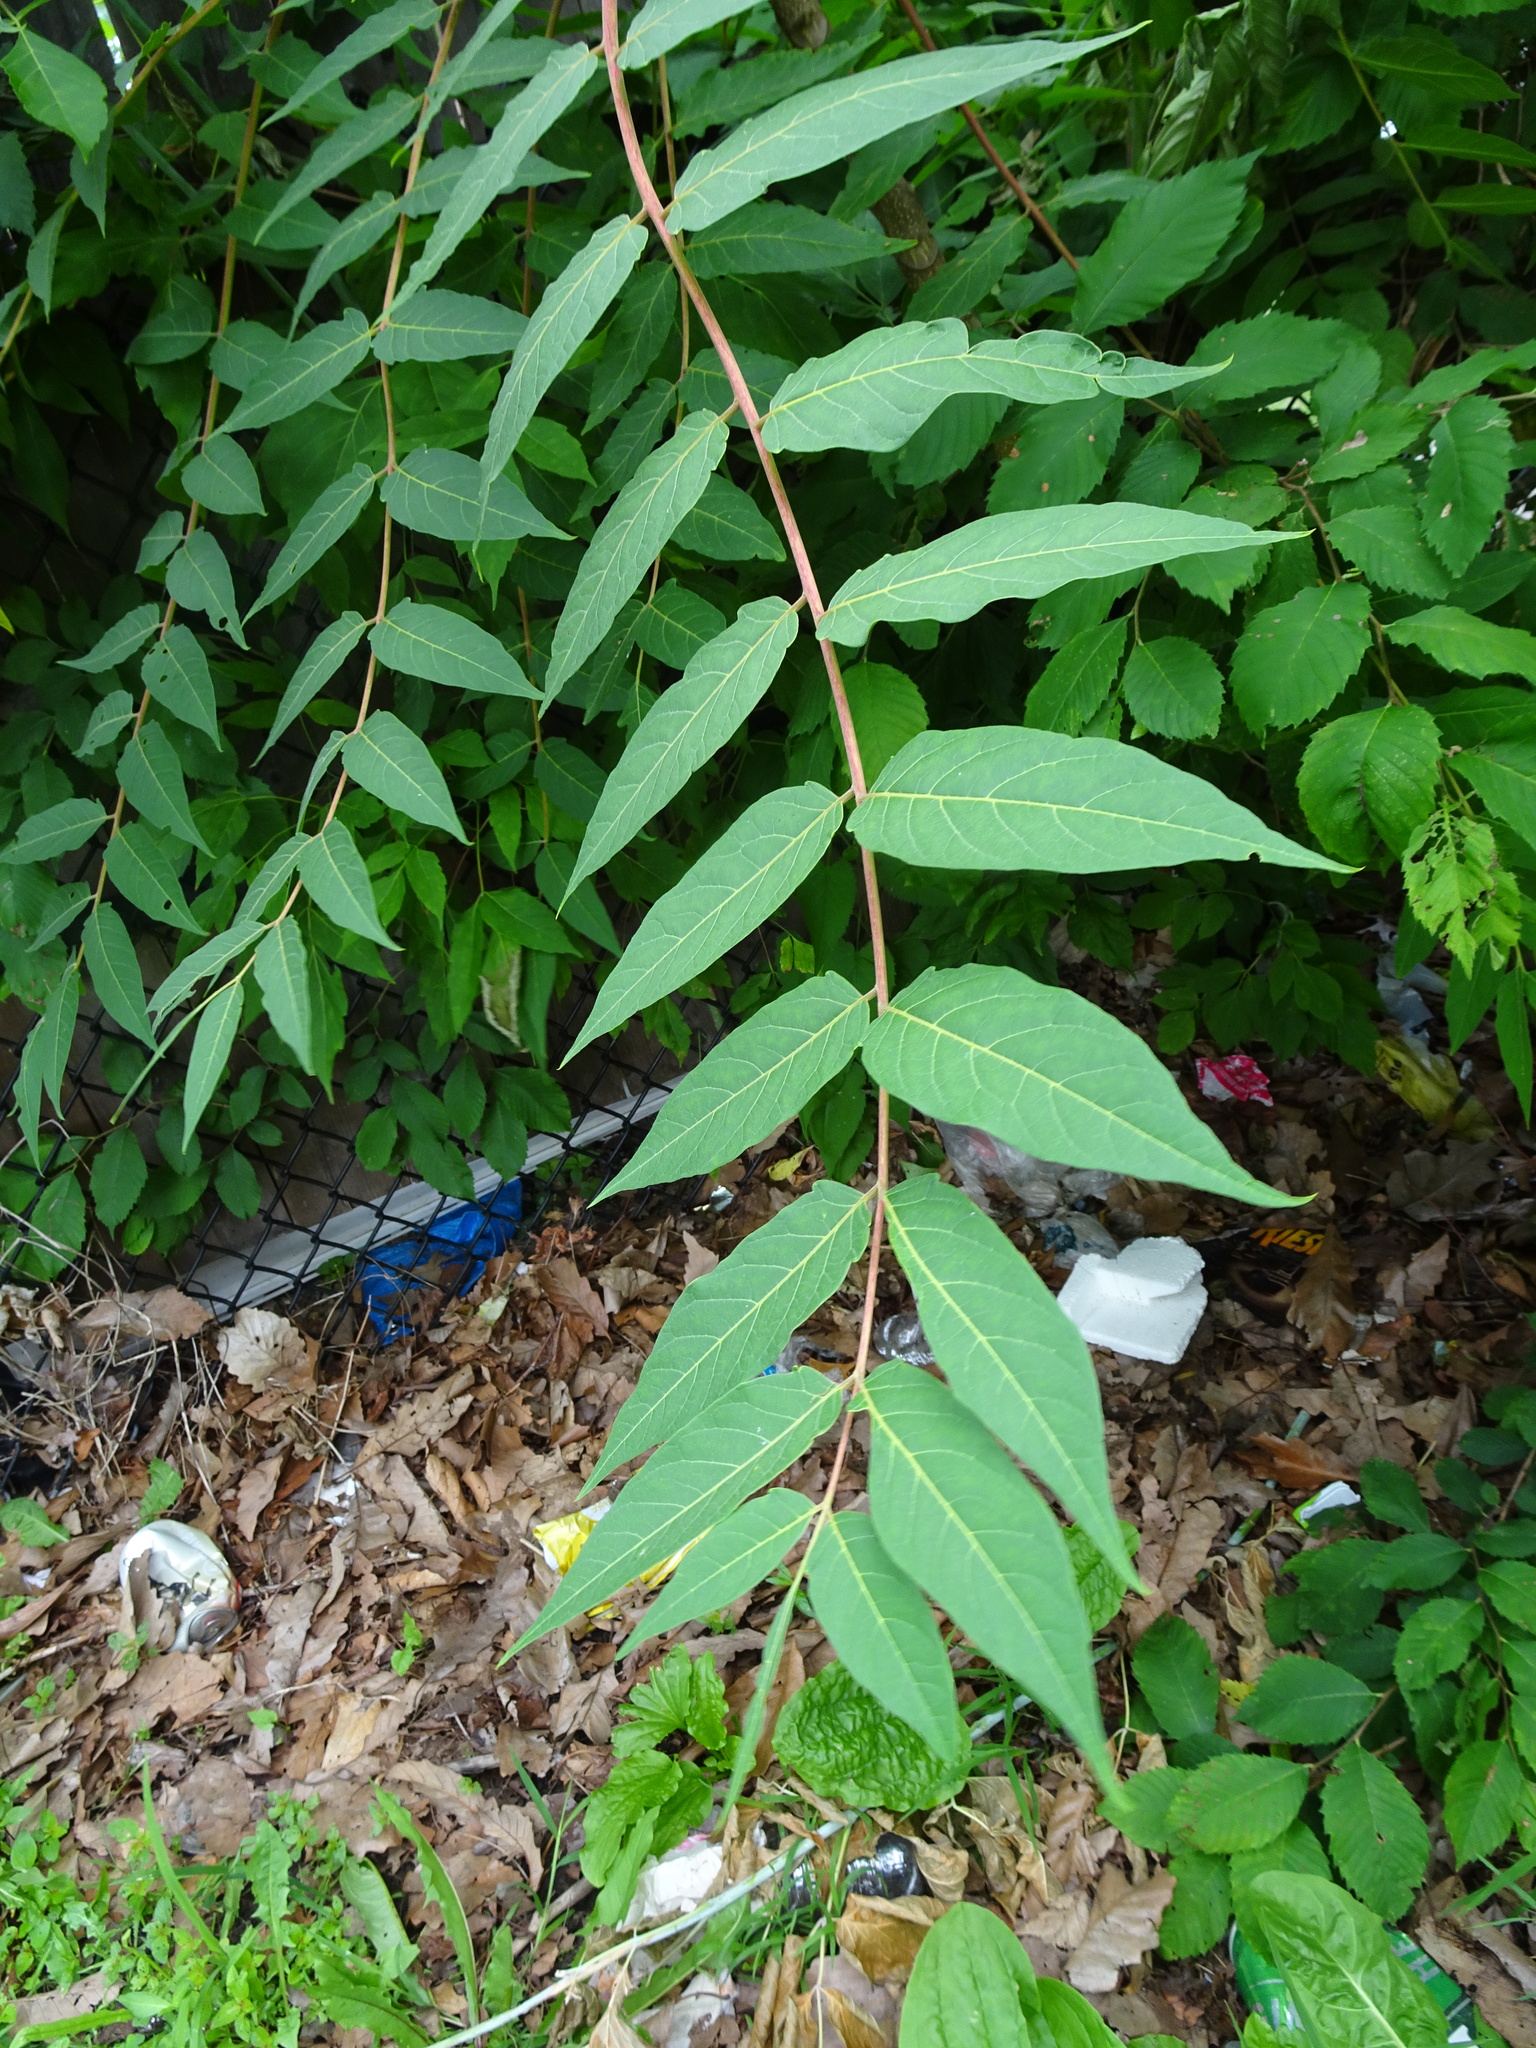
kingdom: Plantae
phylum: Tracheophyta
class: Magnoliopsida
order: Sapindales
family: Simaroubaceae
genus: Ailanthus
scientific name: Ailanthus altissima
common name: Tree-of-heaven
